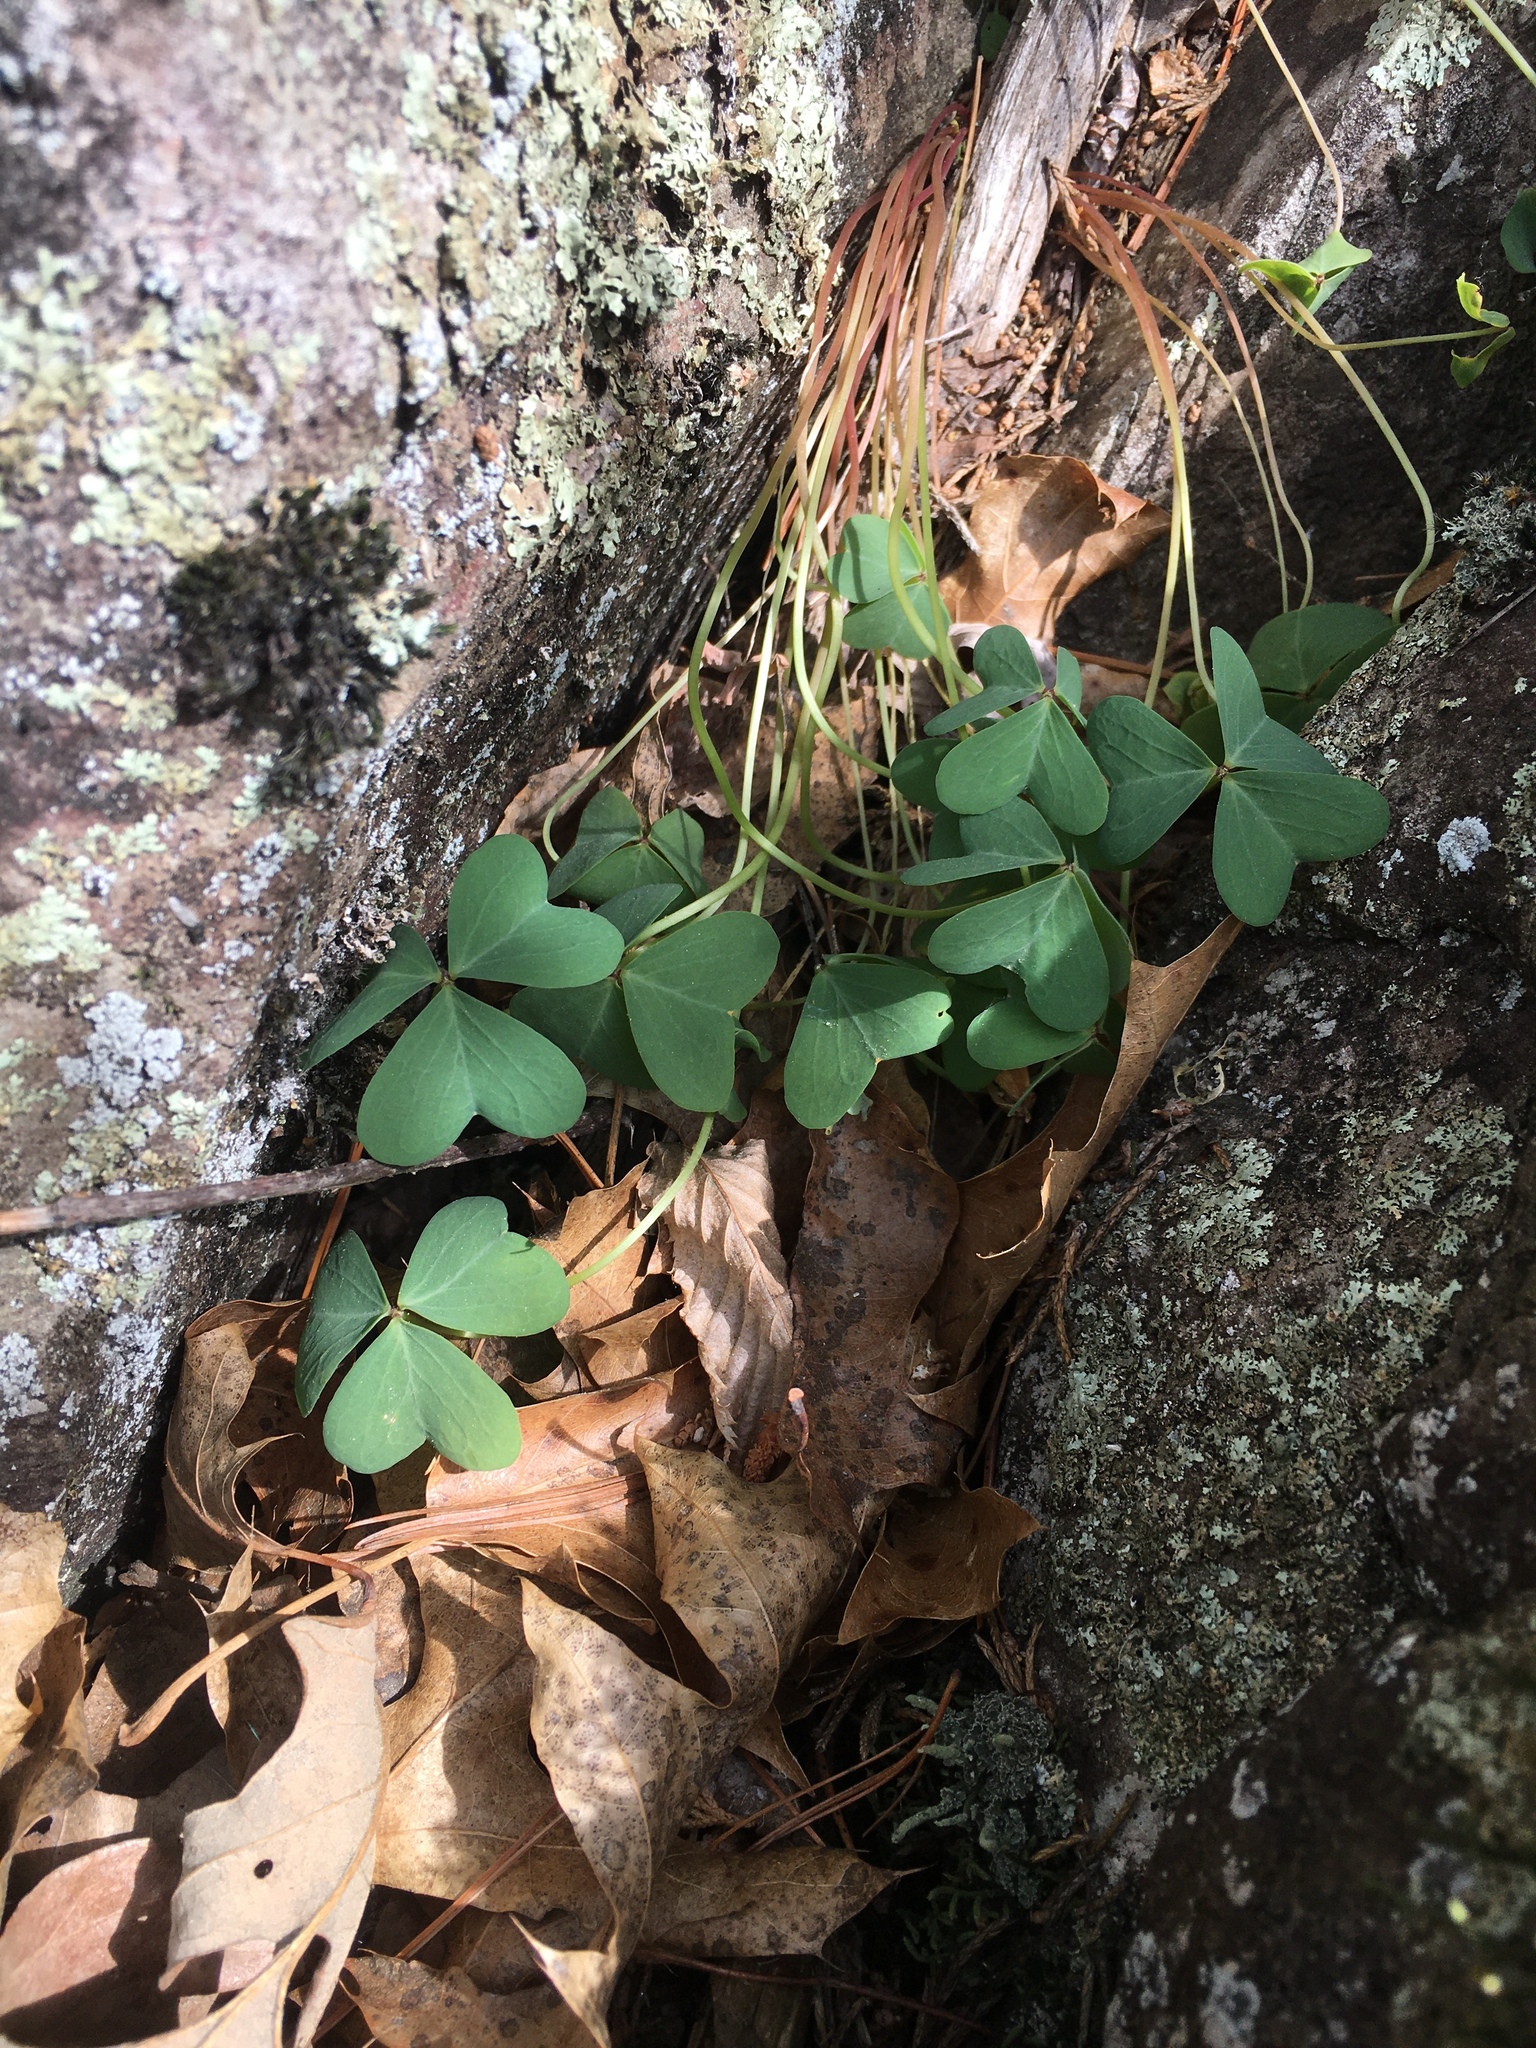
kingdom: Plantae
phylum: Tracheophyta
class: Magnoliopsida
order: Oxalidales
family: Oxalidaceae
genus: Oxalis
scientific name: Oxalis violacea
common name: Violet wood-sorrel
